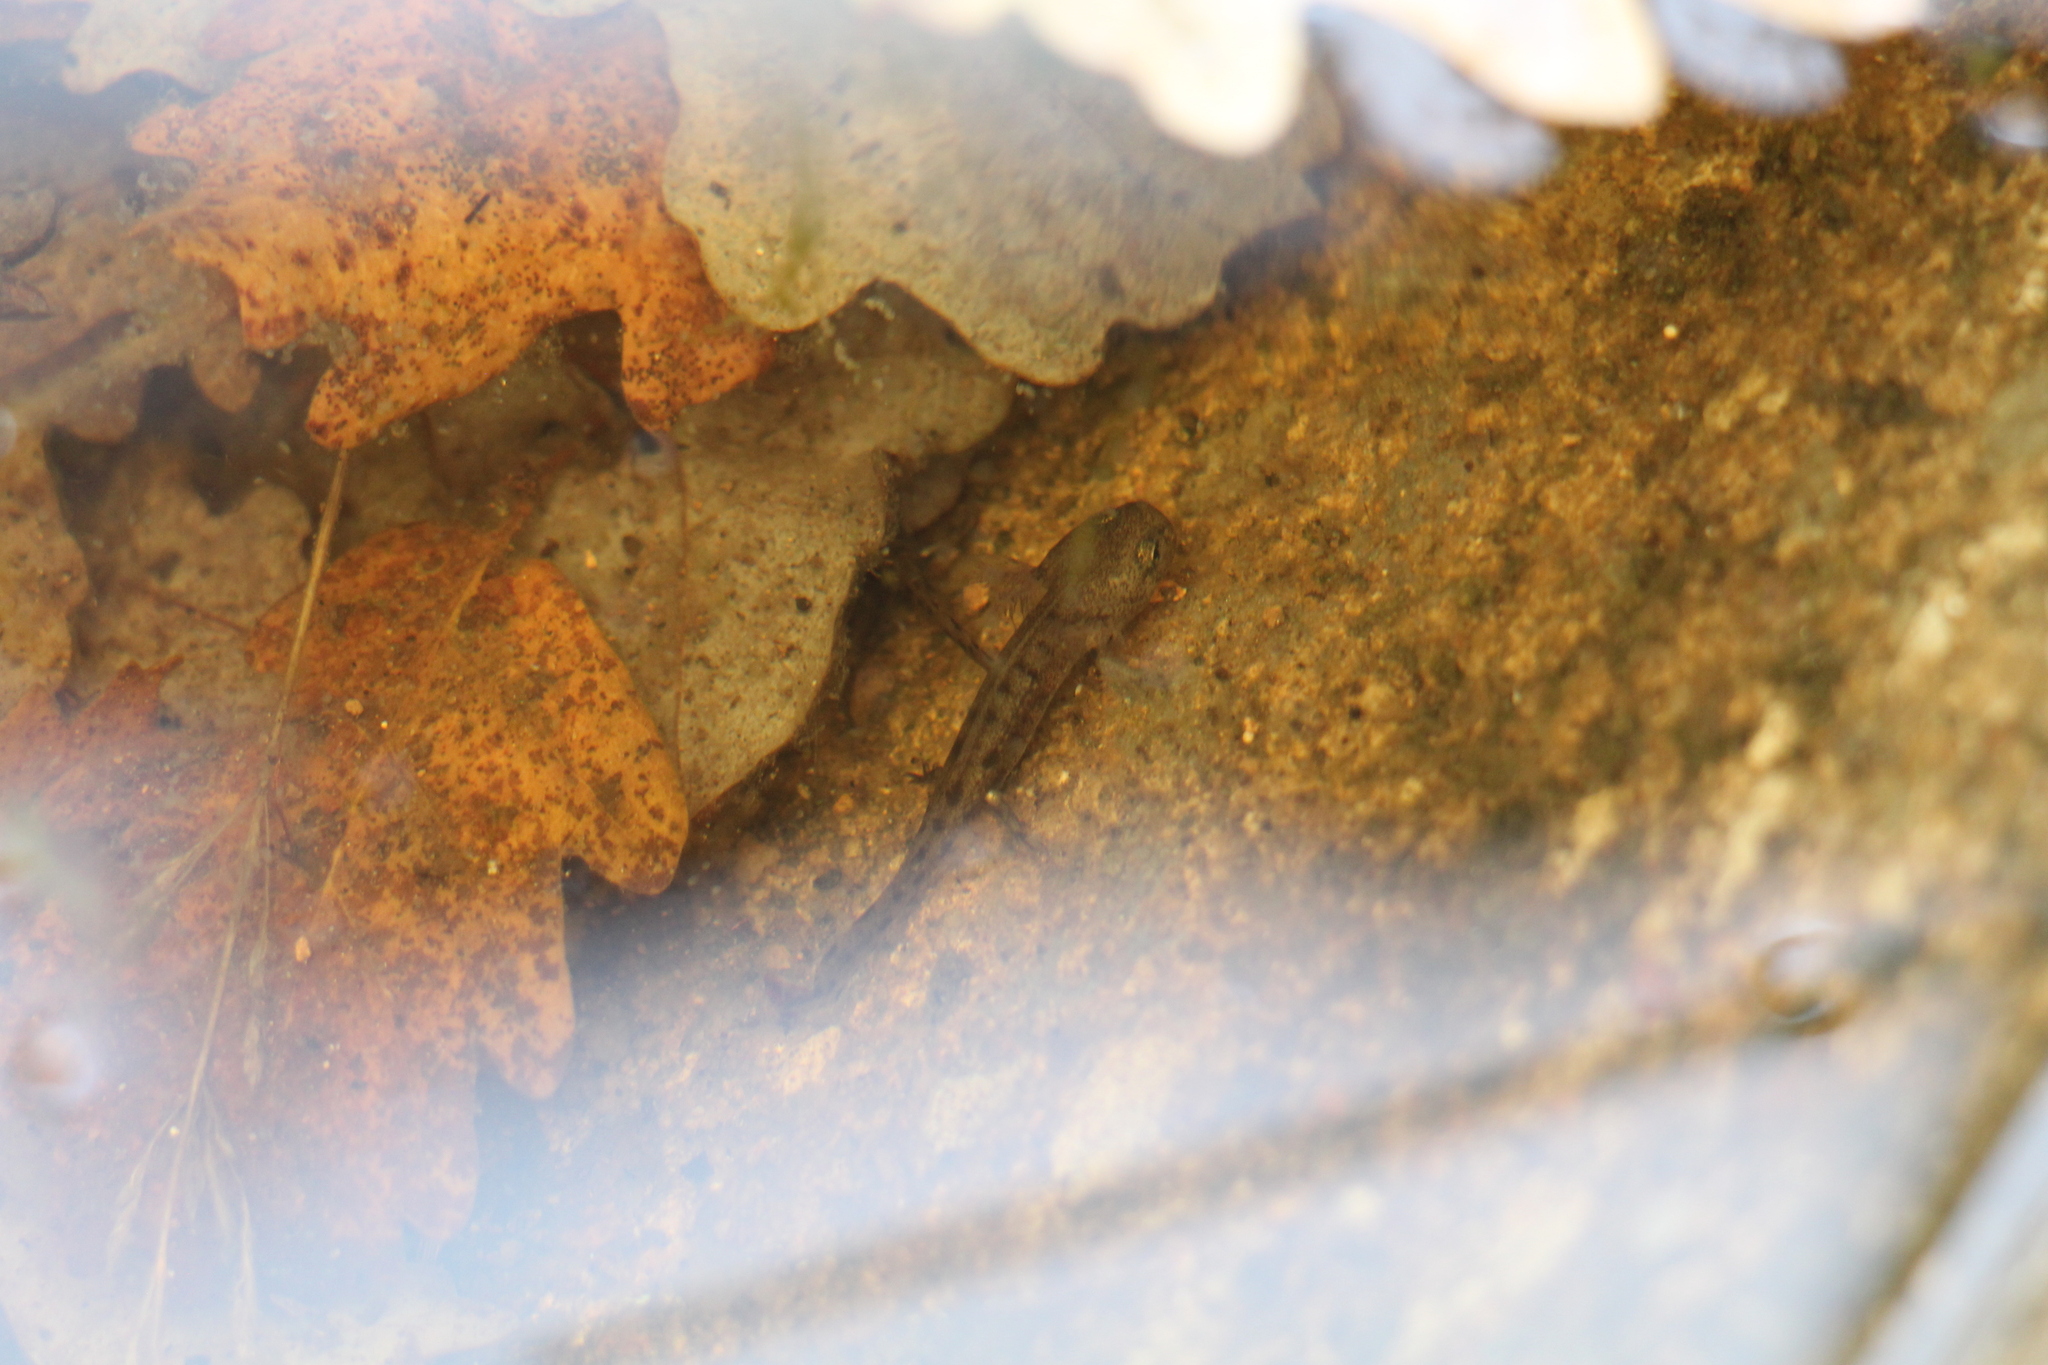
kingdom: Animalia
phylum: Chordata
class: Amphibia
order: Caudata
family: Salamandridae
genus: Salamandra
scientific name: Salamandra salamandra
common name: Fire salamander
